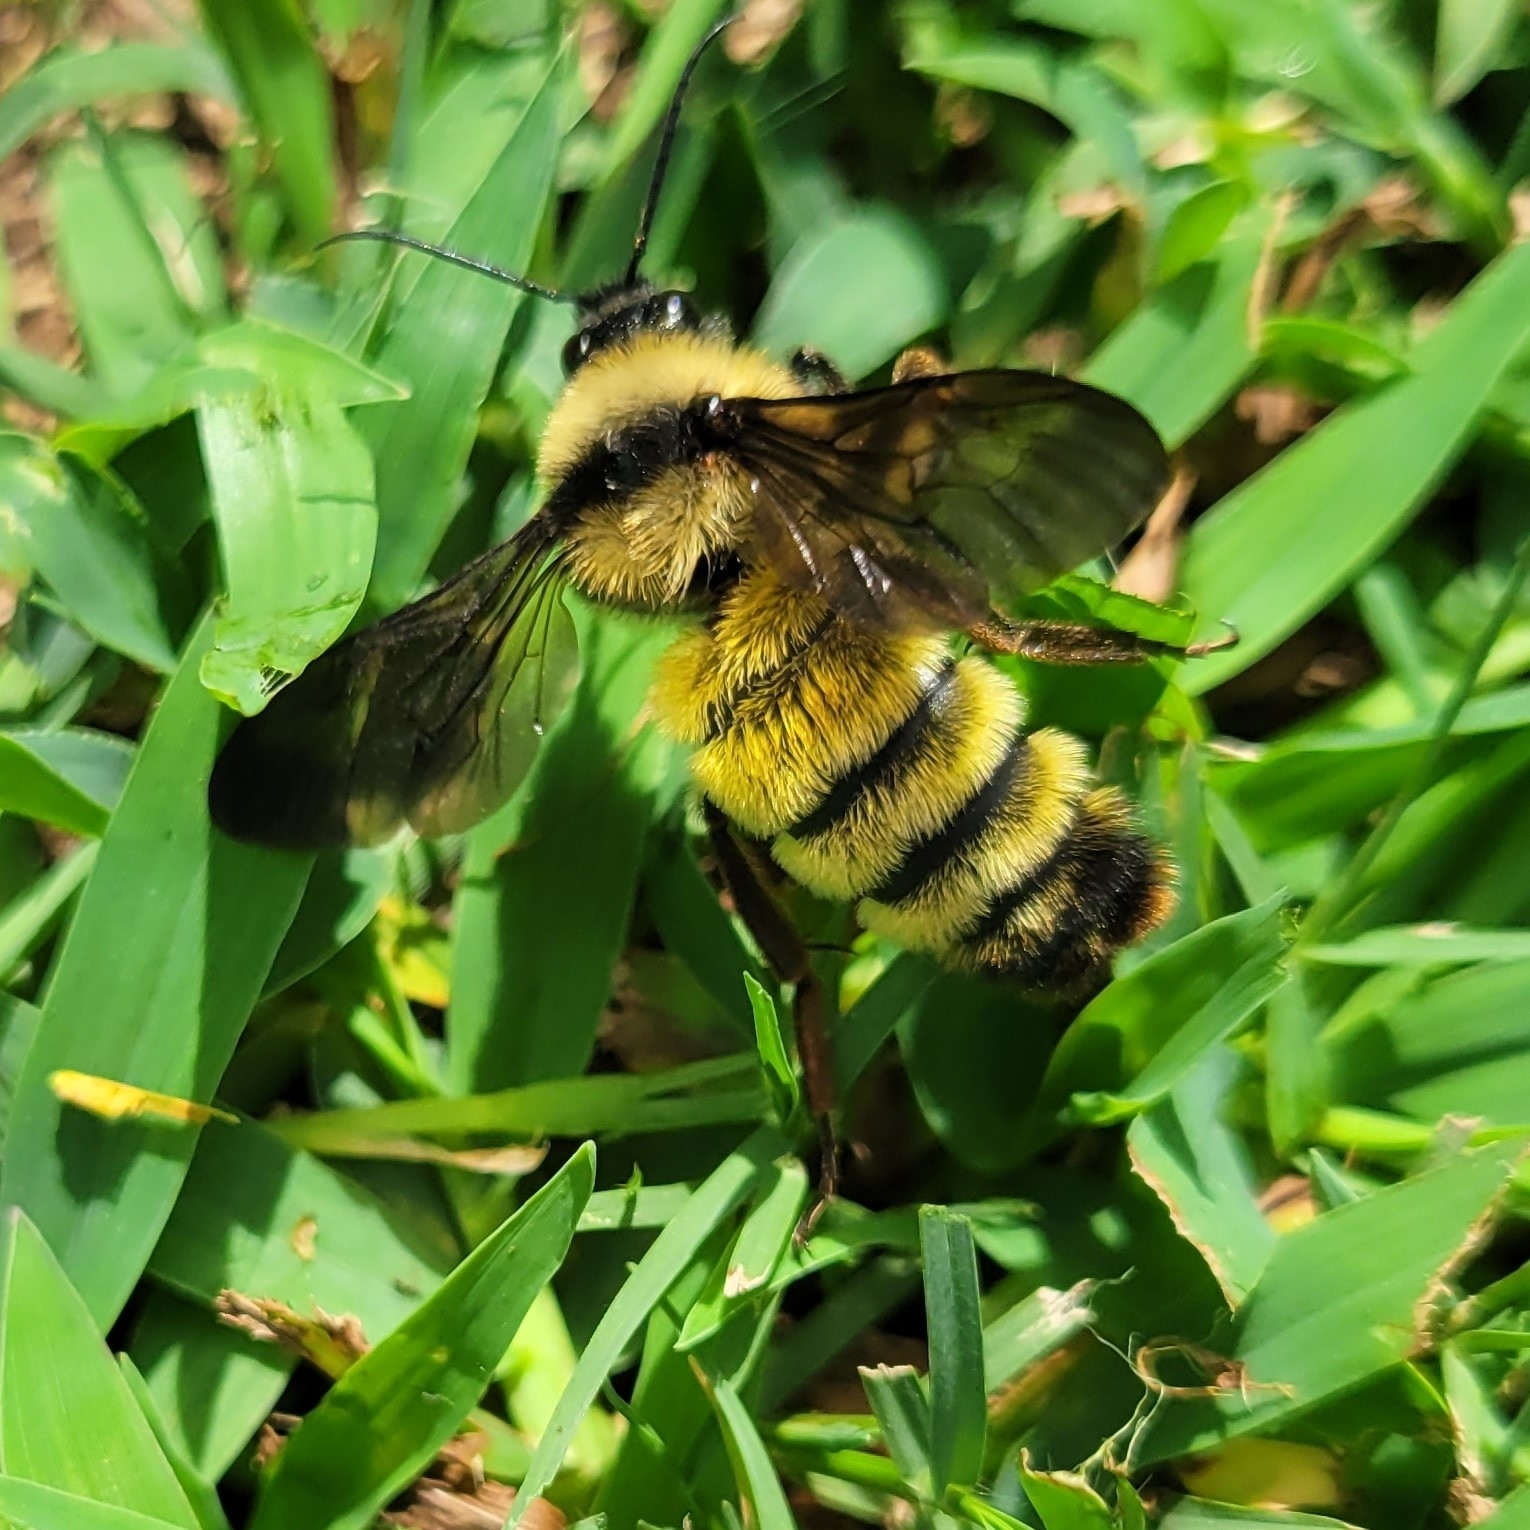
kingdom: Animalia
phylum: Arthropoda
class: Insecta
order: Hymenoptera
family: Apidae
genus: Bombus
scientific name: Bombus pensylvanicus
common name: Bumble bee
